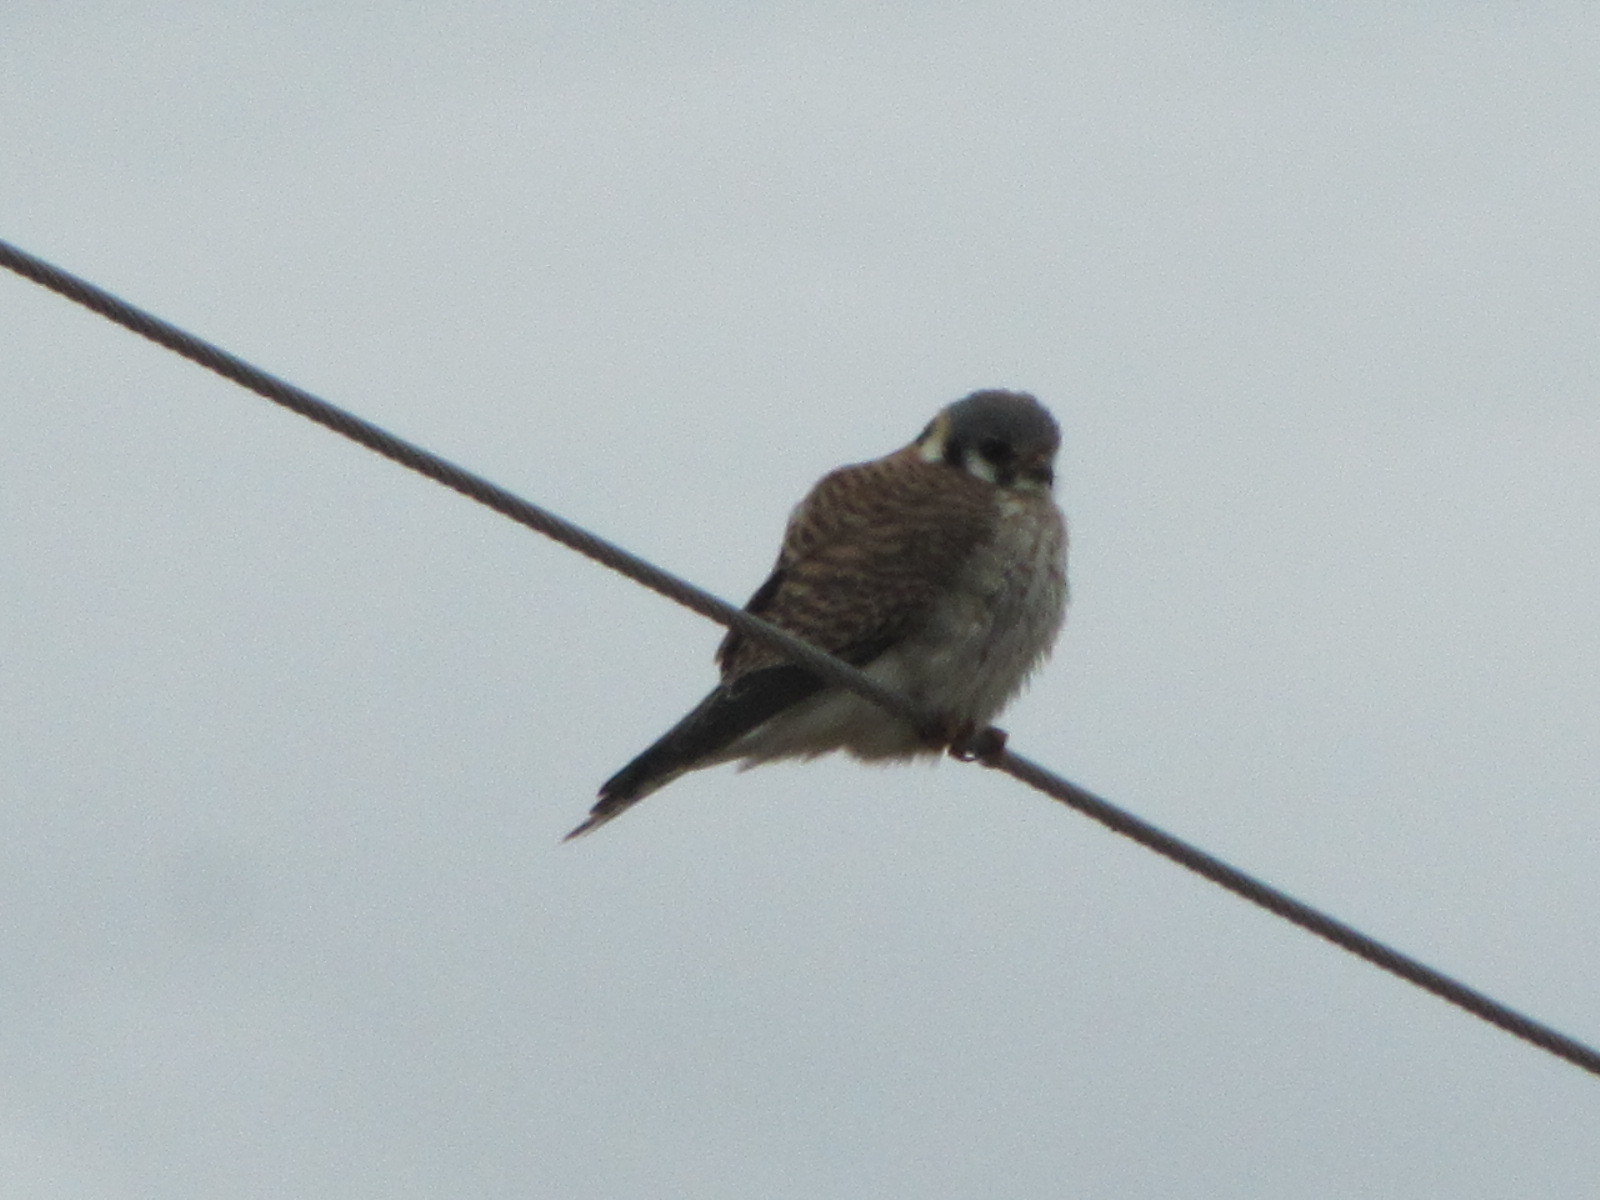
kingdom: Animalia
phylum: Chordata
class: Aves
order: Falconiformes
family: Falconidae
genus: Falco
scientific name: Falco sparverius
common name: American kestrel
